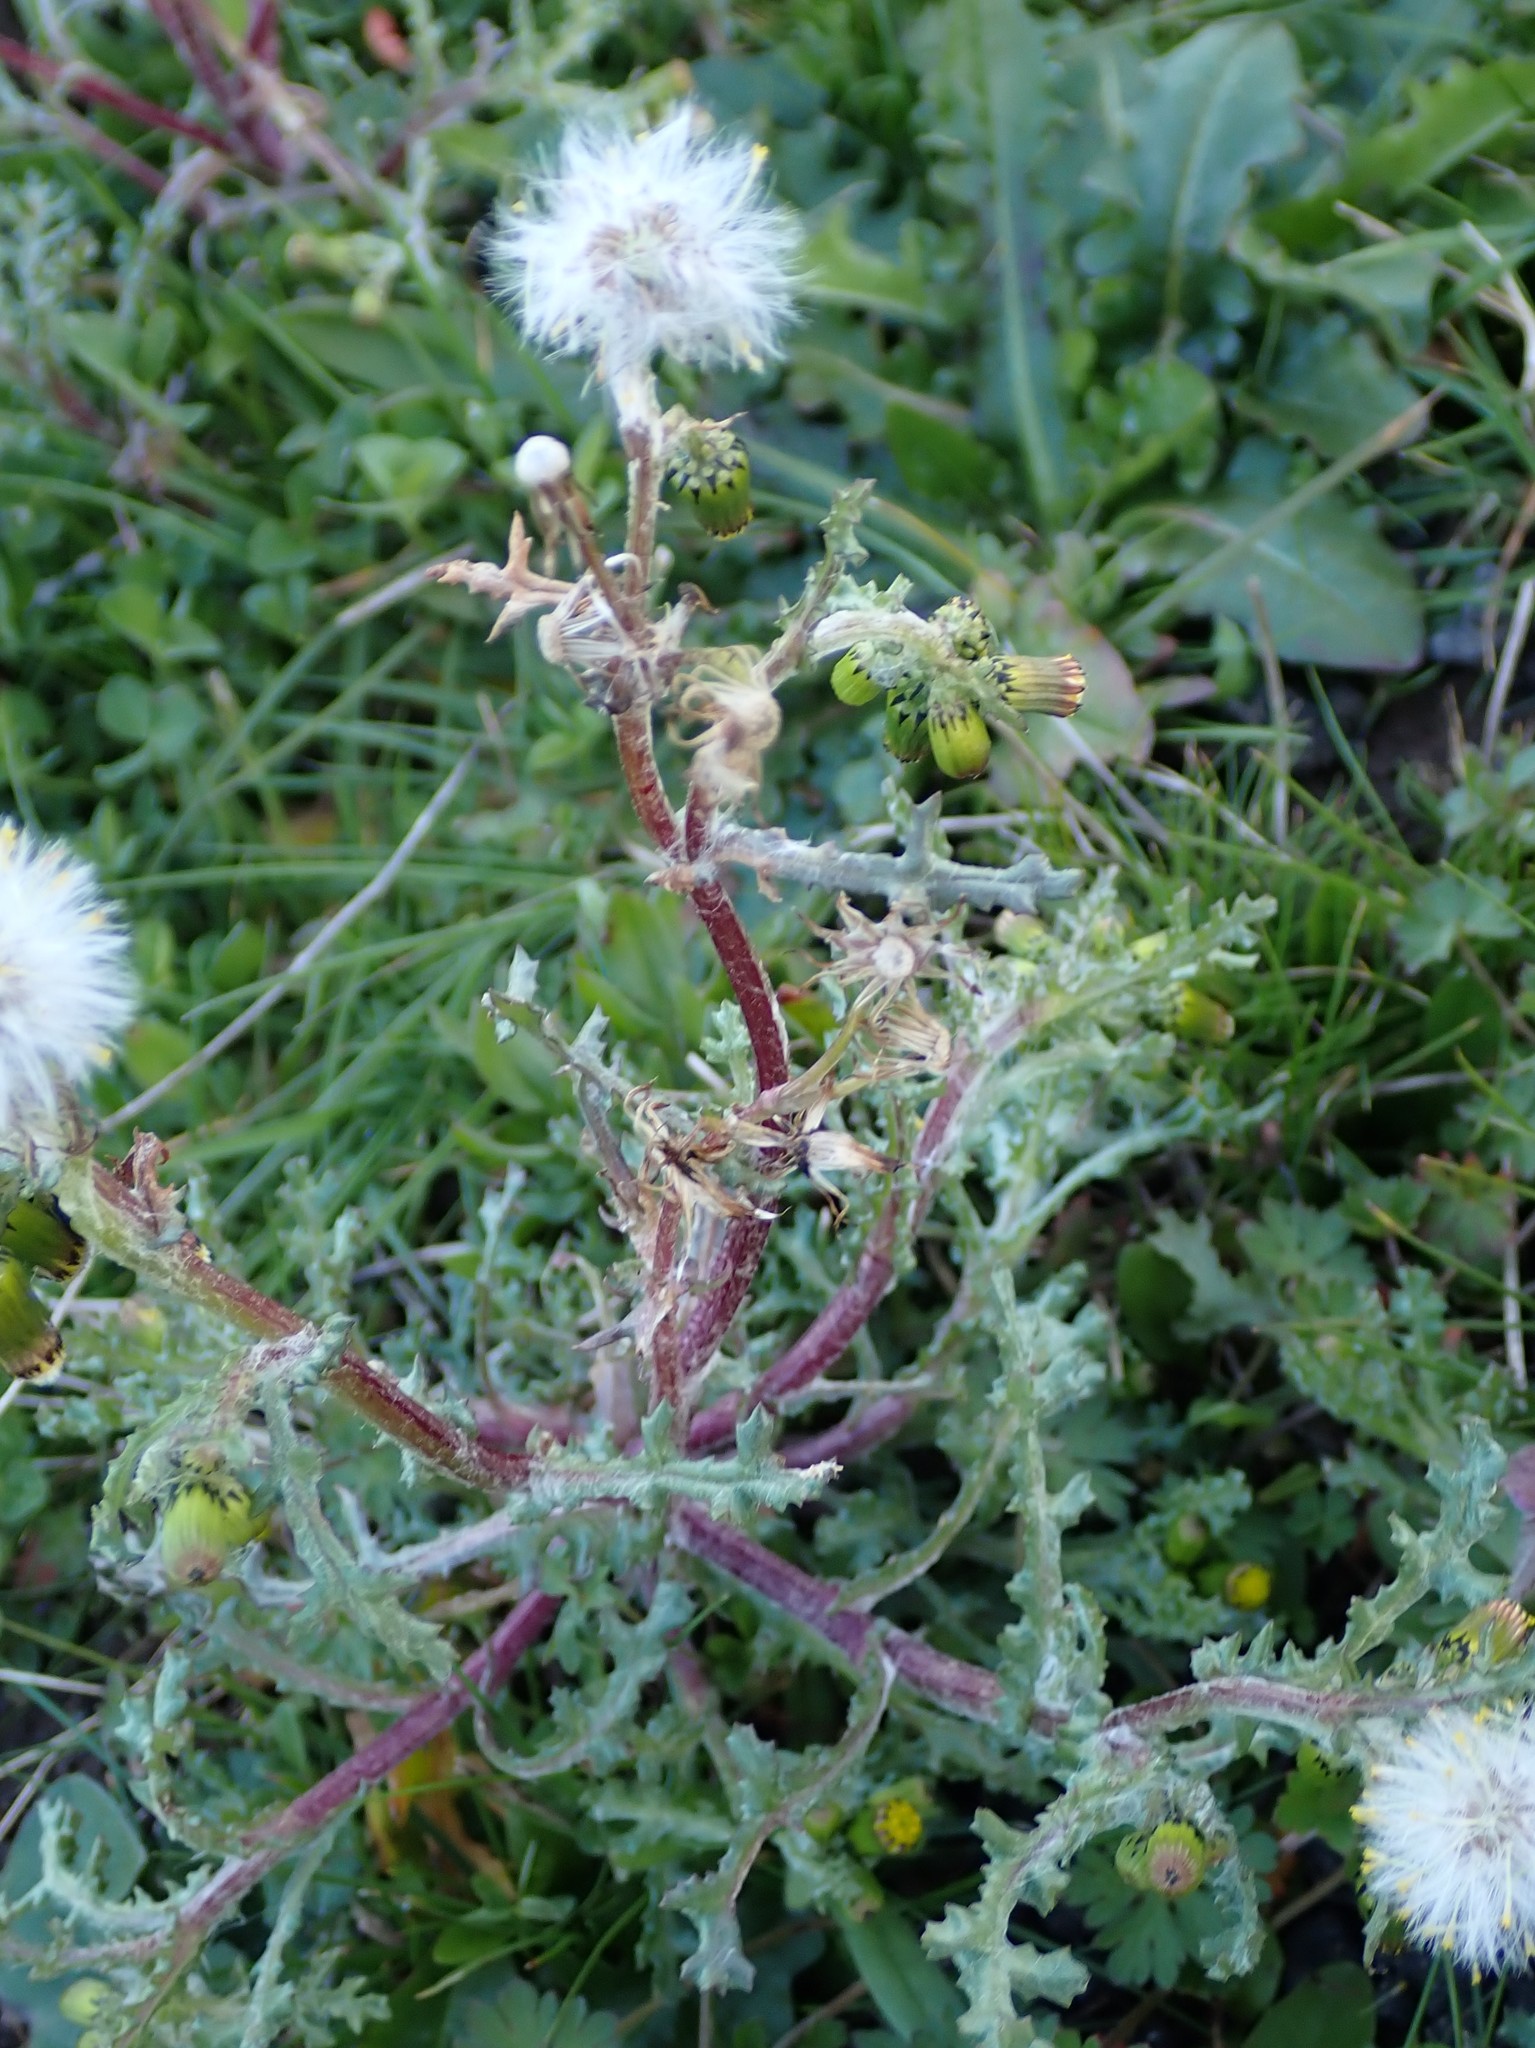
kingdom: Plantae
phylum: Tracheophyta
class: Magnoliopsida
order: Asterales
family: Asteraceae
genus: Senecio
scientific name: Senecio vulgaris
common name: Old-man-in-the-spring
